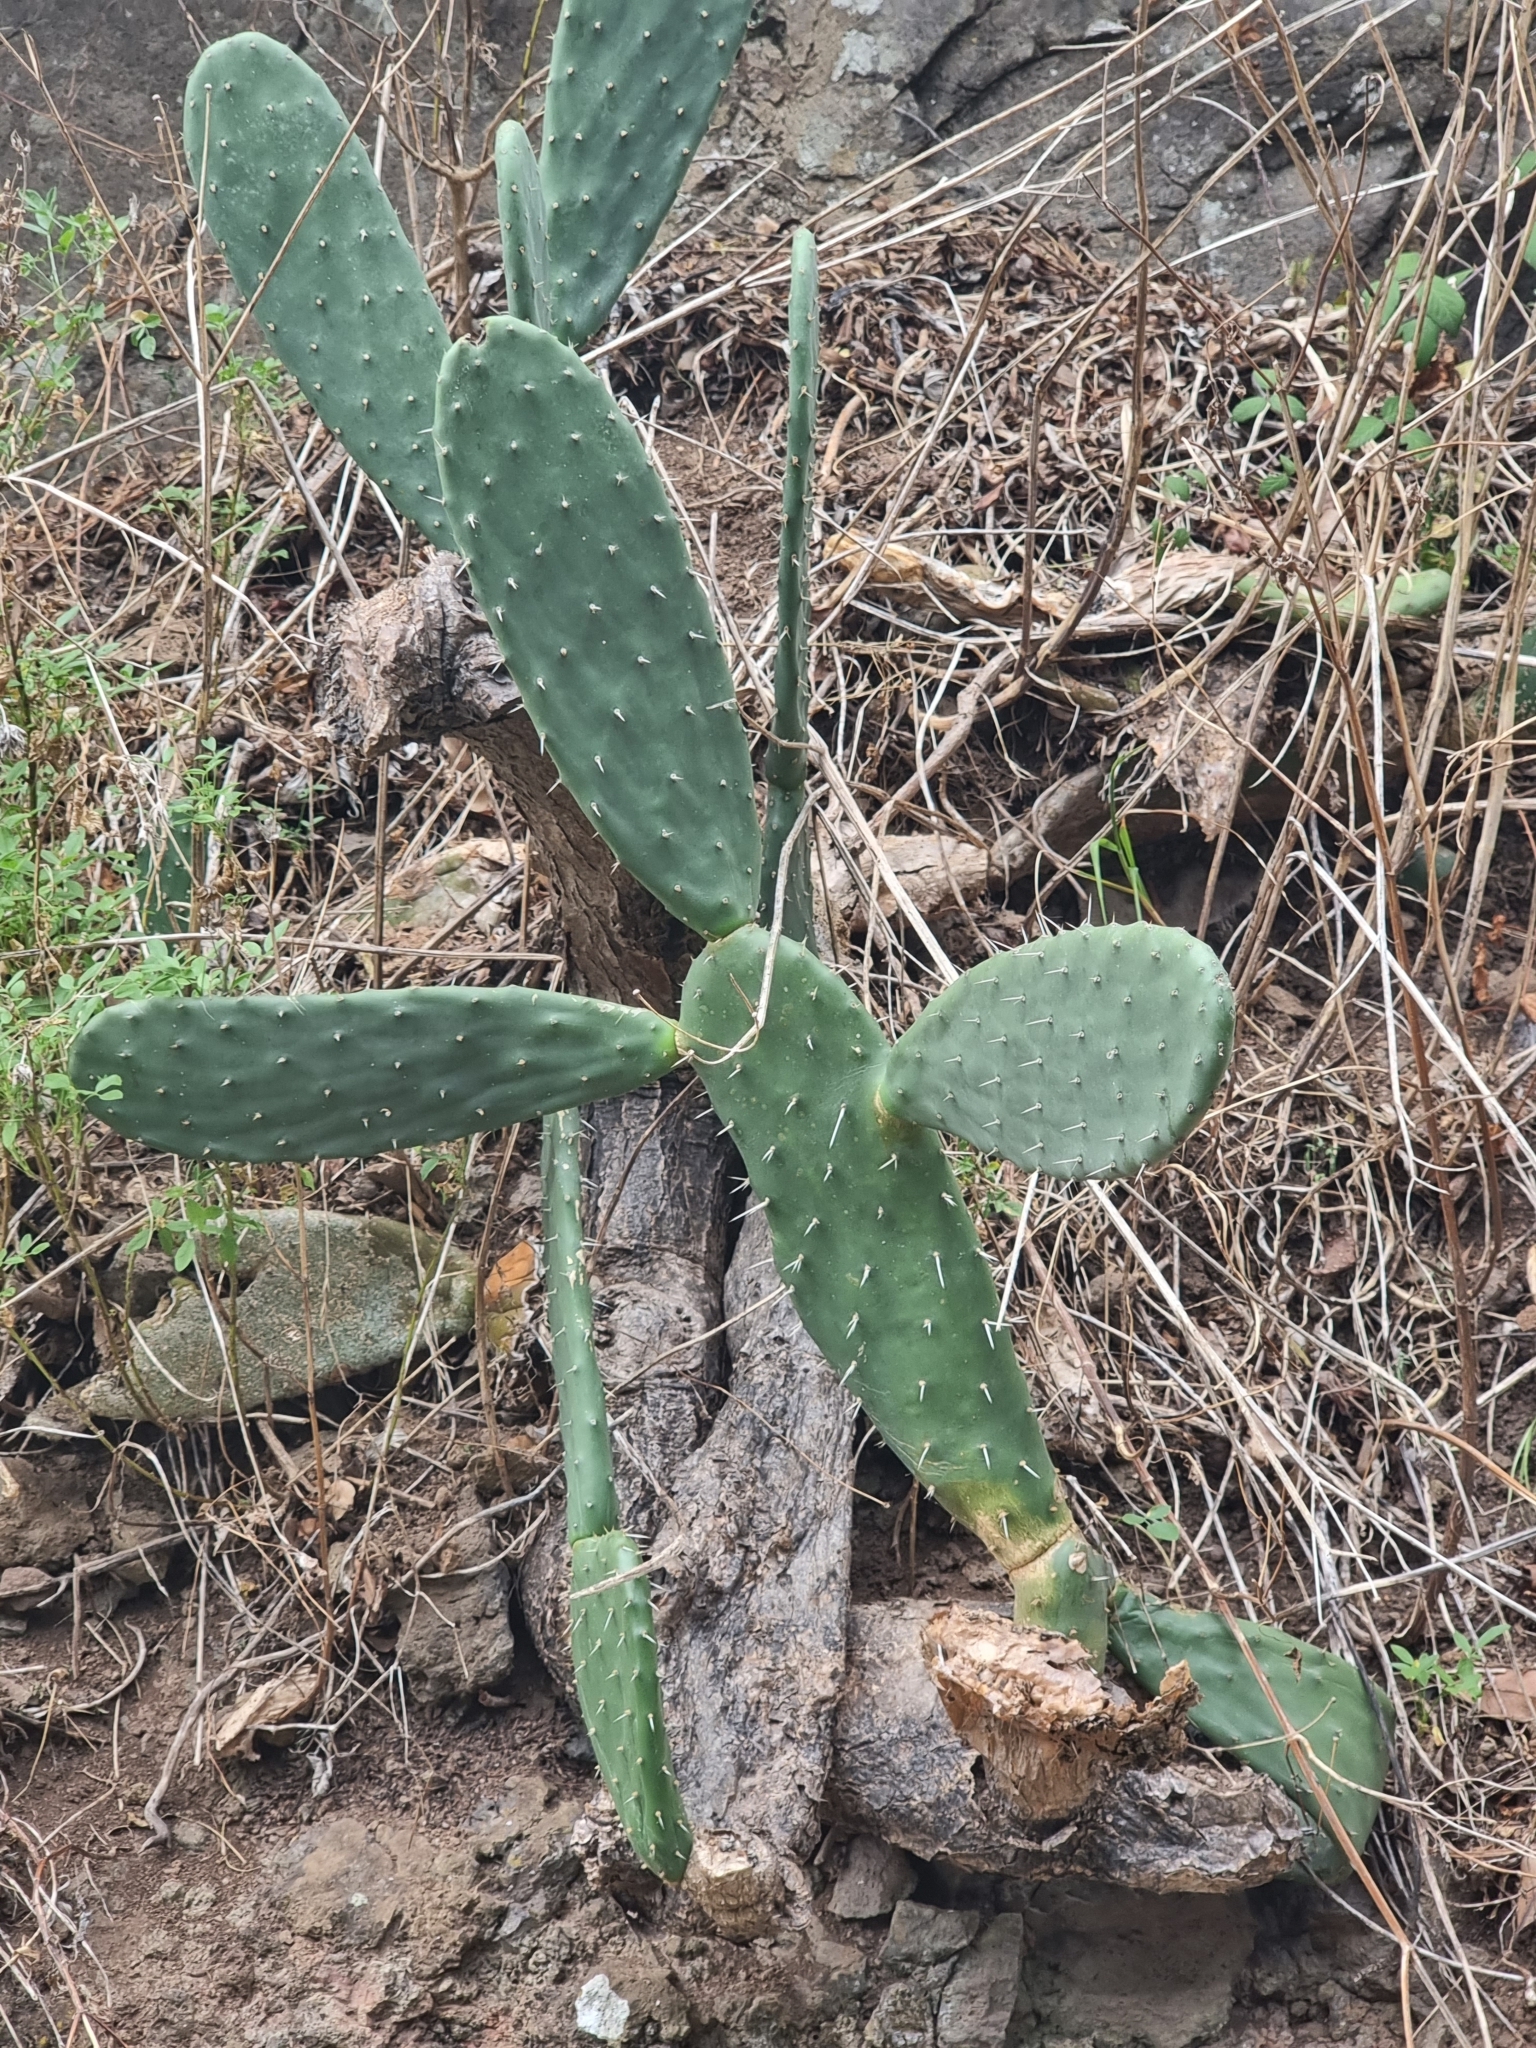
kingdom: Plantae
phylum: Tracheophyta
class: Magnoliopsida
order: Caryophyllales
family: Cactaceae
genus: Opuntia
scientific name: Opuntia ficus-indica
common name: Barbary fig
